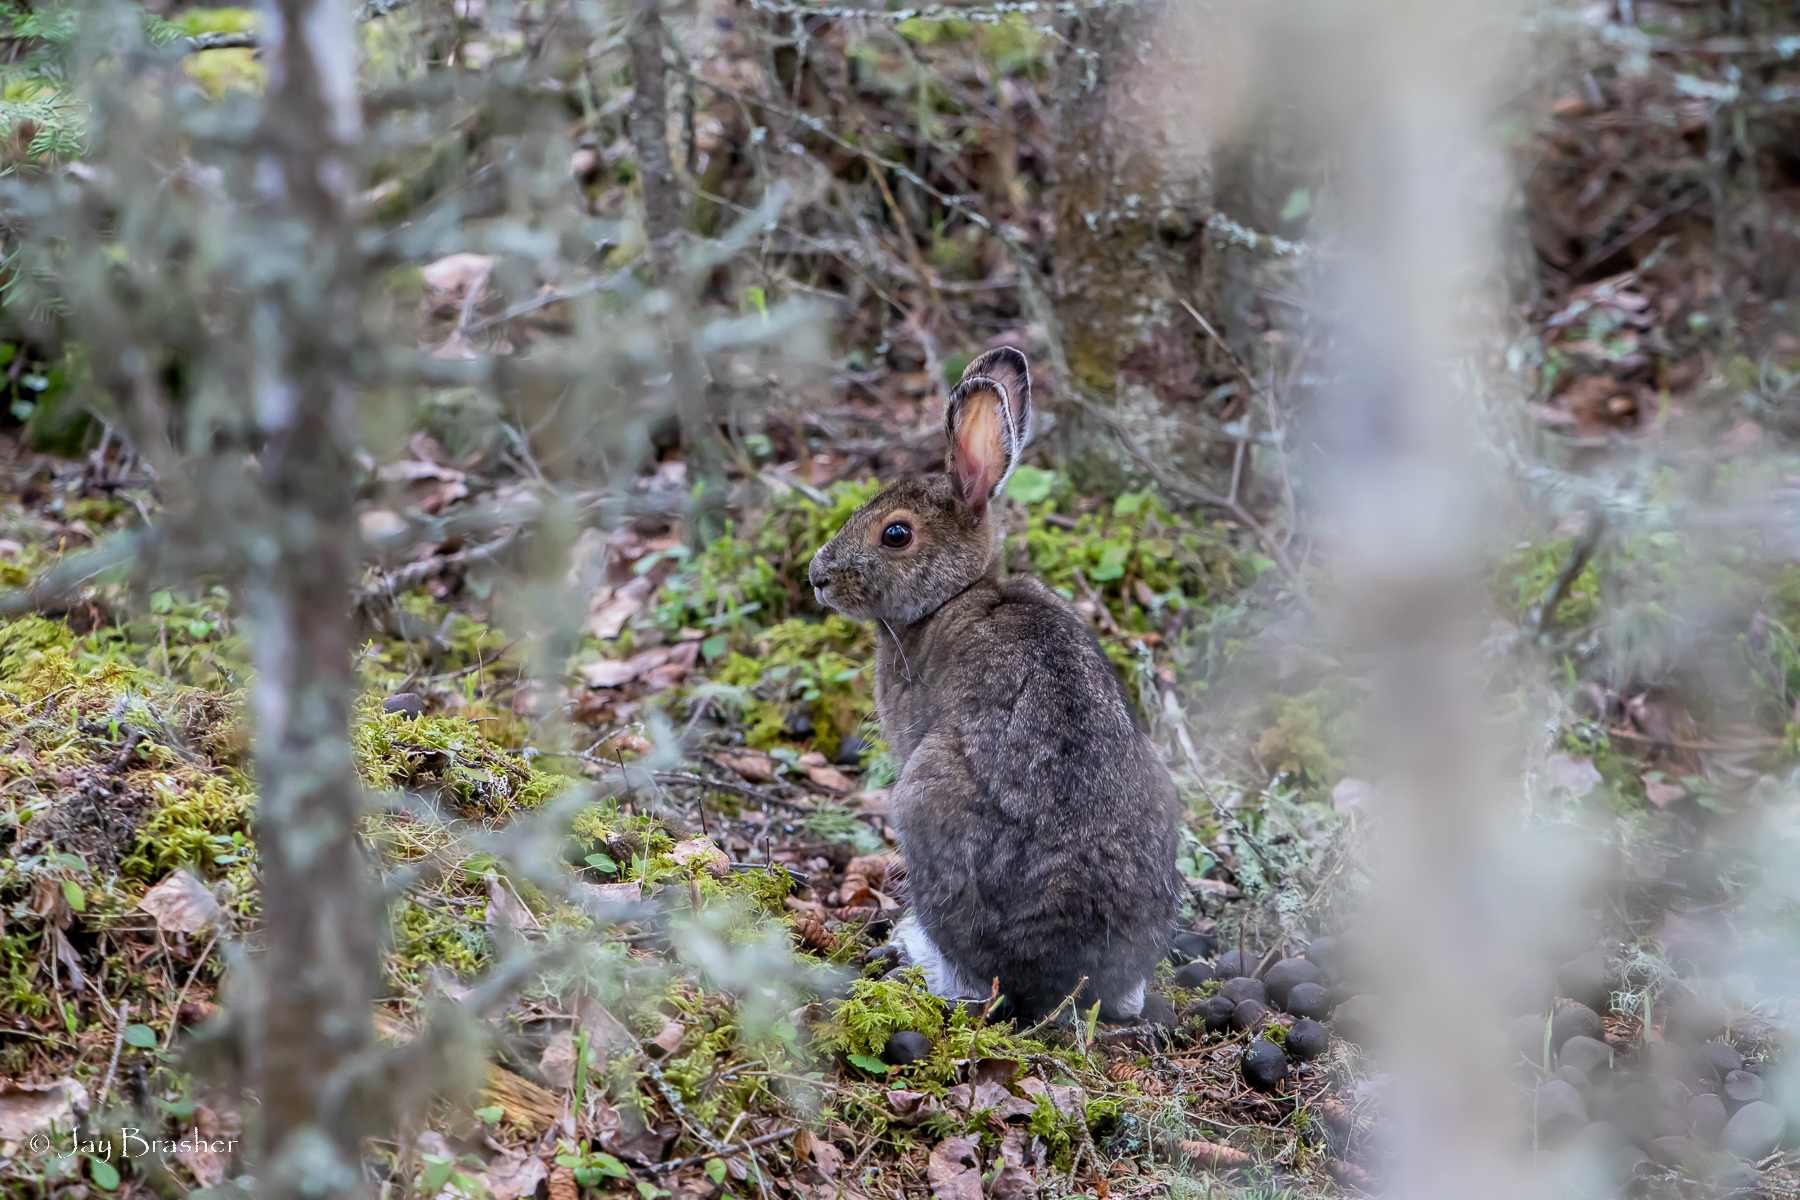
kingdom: Animalia
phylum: Chordata
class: Mammalia
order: Lagomorpha
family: Leporidae
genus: Lepus
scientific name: Lepus americanus
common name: Snowshoe hare
